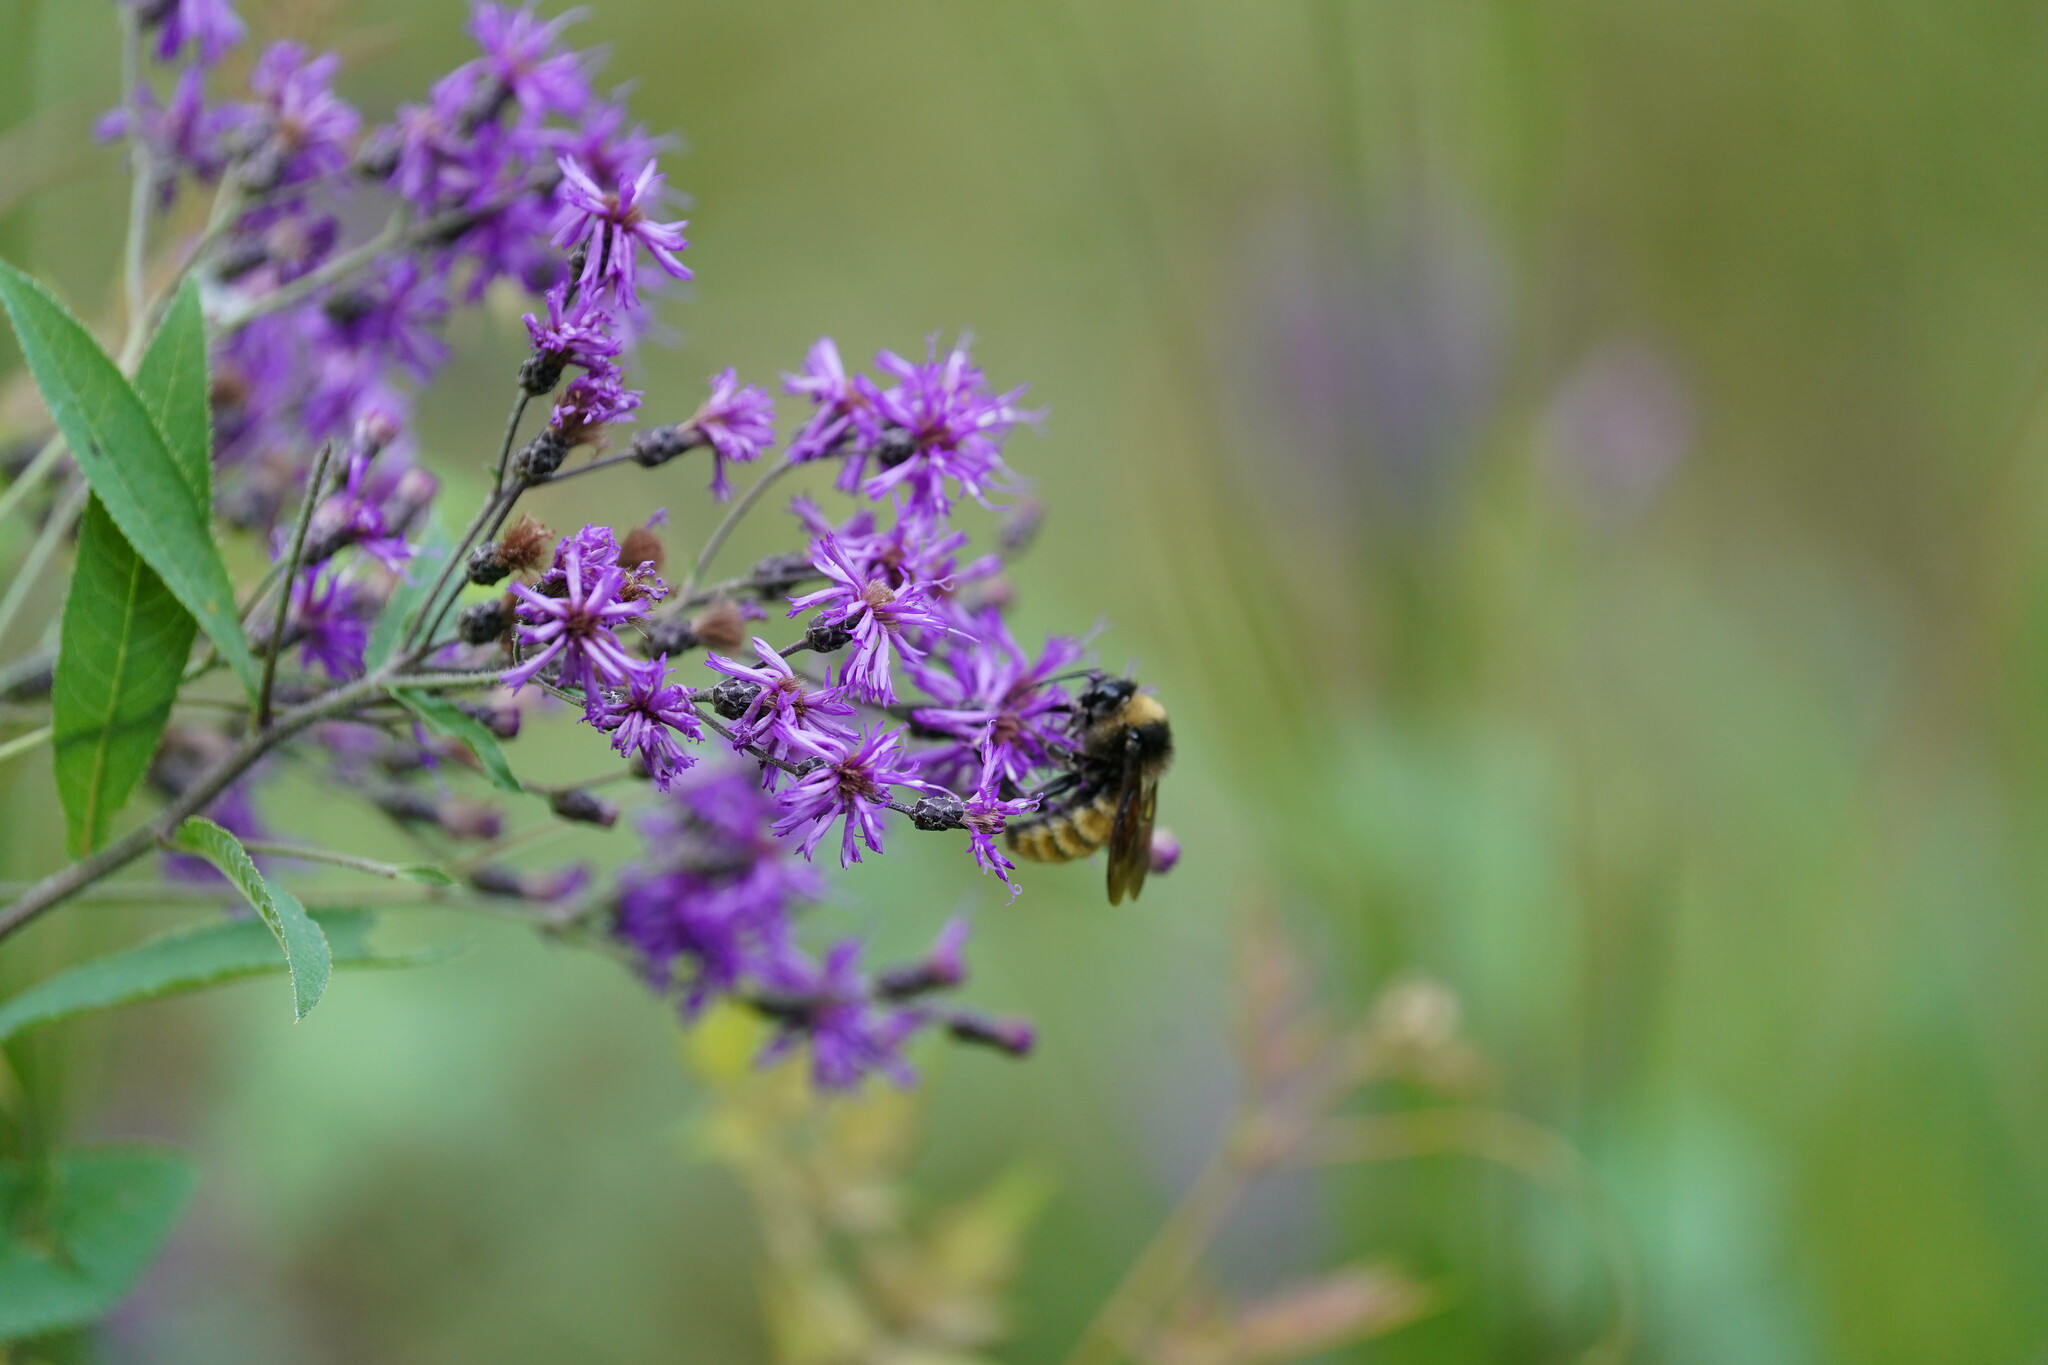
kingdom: Animalia
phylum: Arthropoda
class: Insecta
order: Hymenoptera
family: Apidae
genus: Bombus
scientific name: Bombus pensylvanicus
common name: Bumble bee
